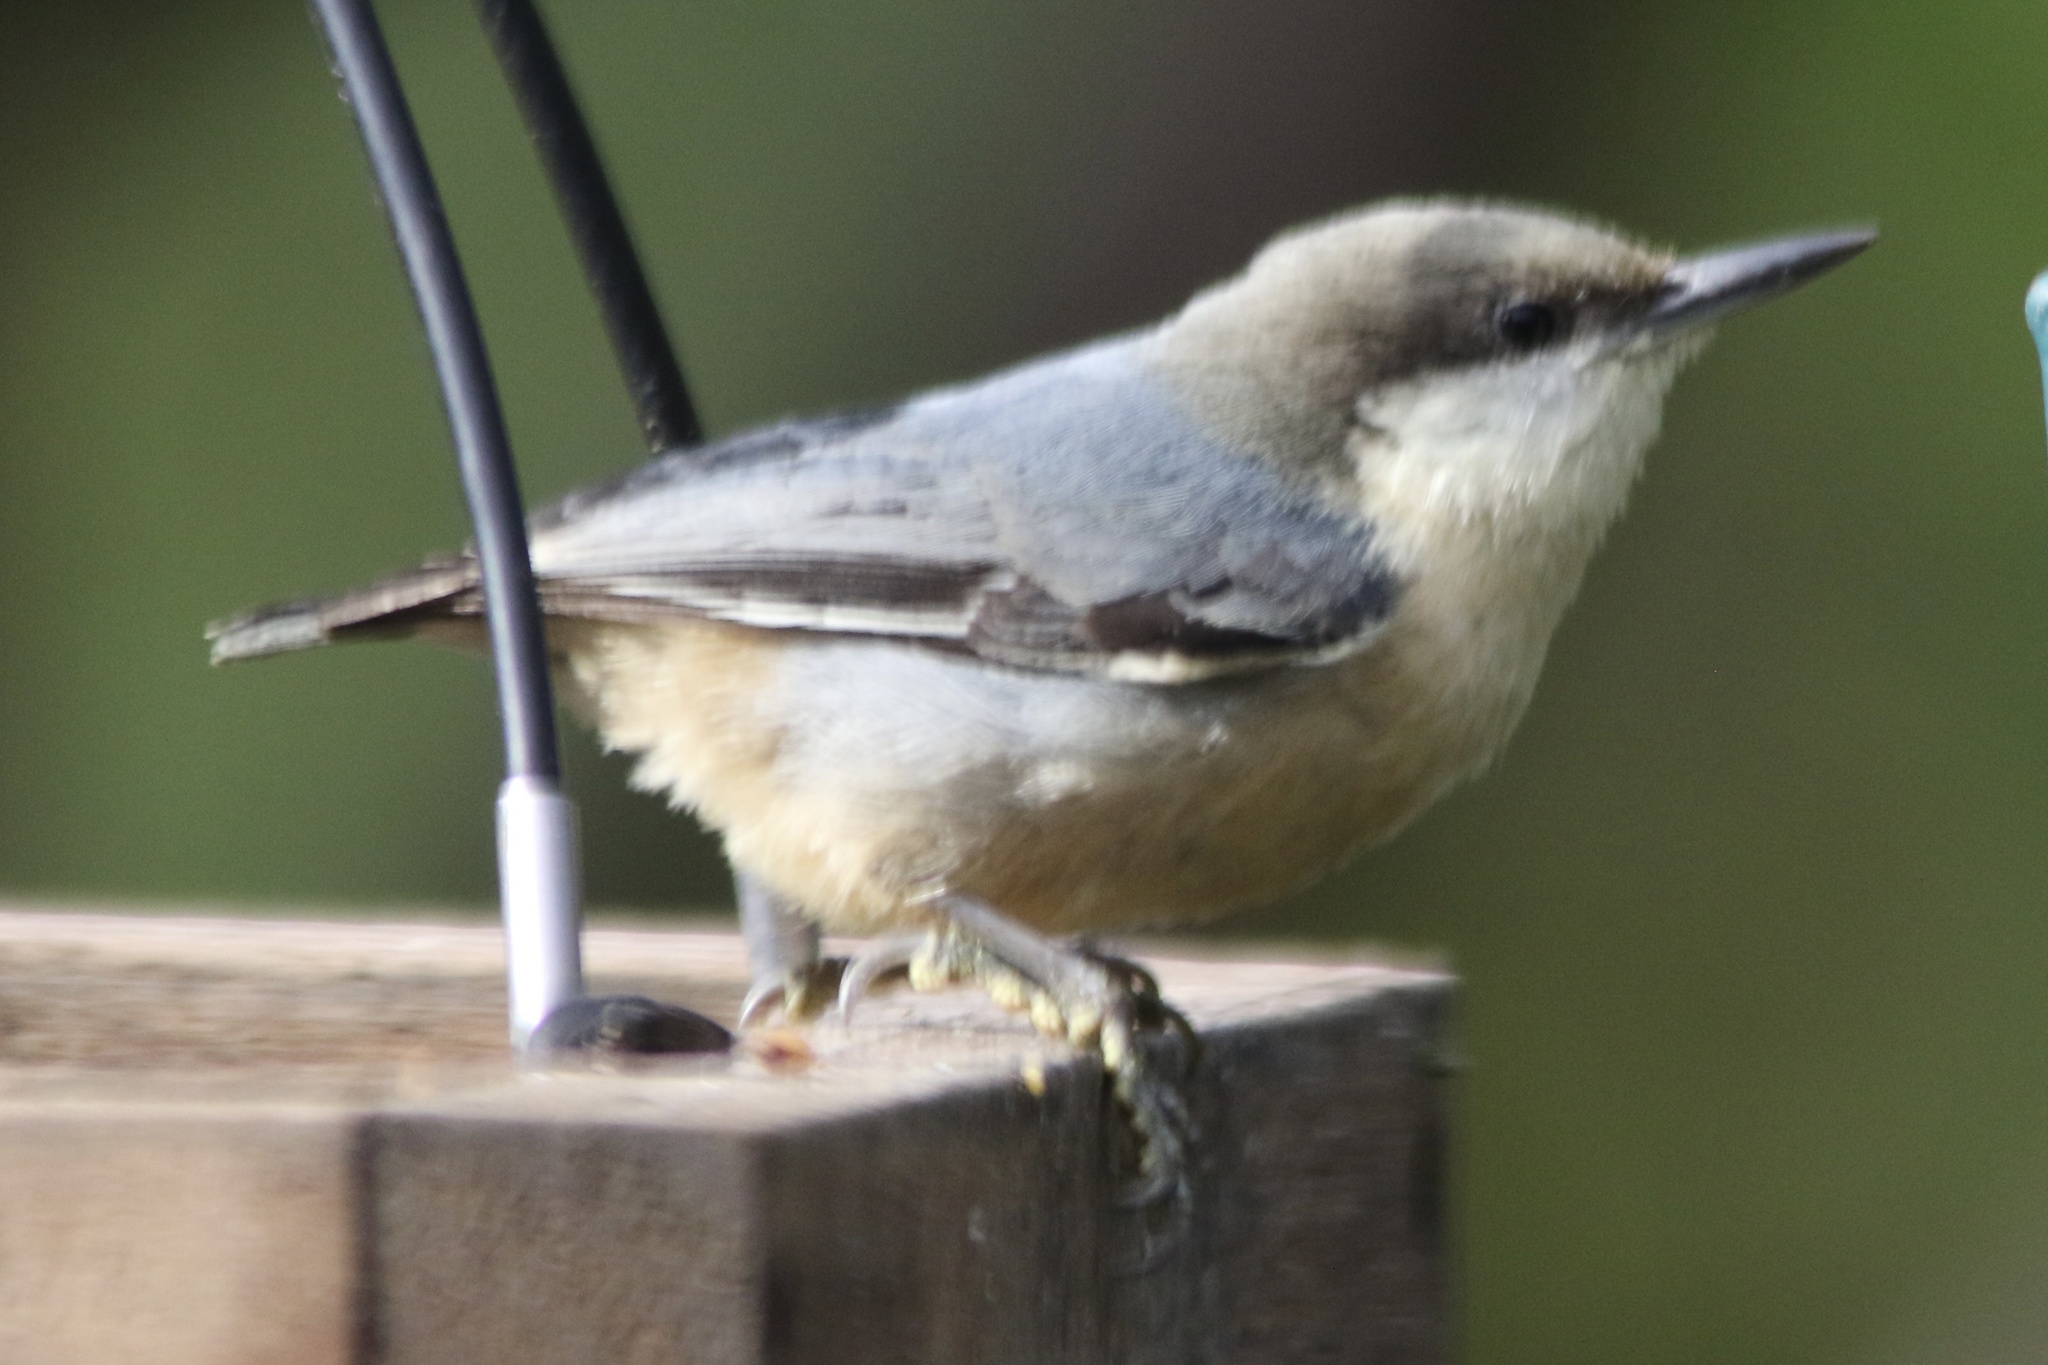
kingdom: Animalia
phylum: Chordata
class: Aves
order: Passeriformes
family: Sittidae
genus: Sitta
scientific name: Sitta pygmaea
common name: Pygmy nuthatch
